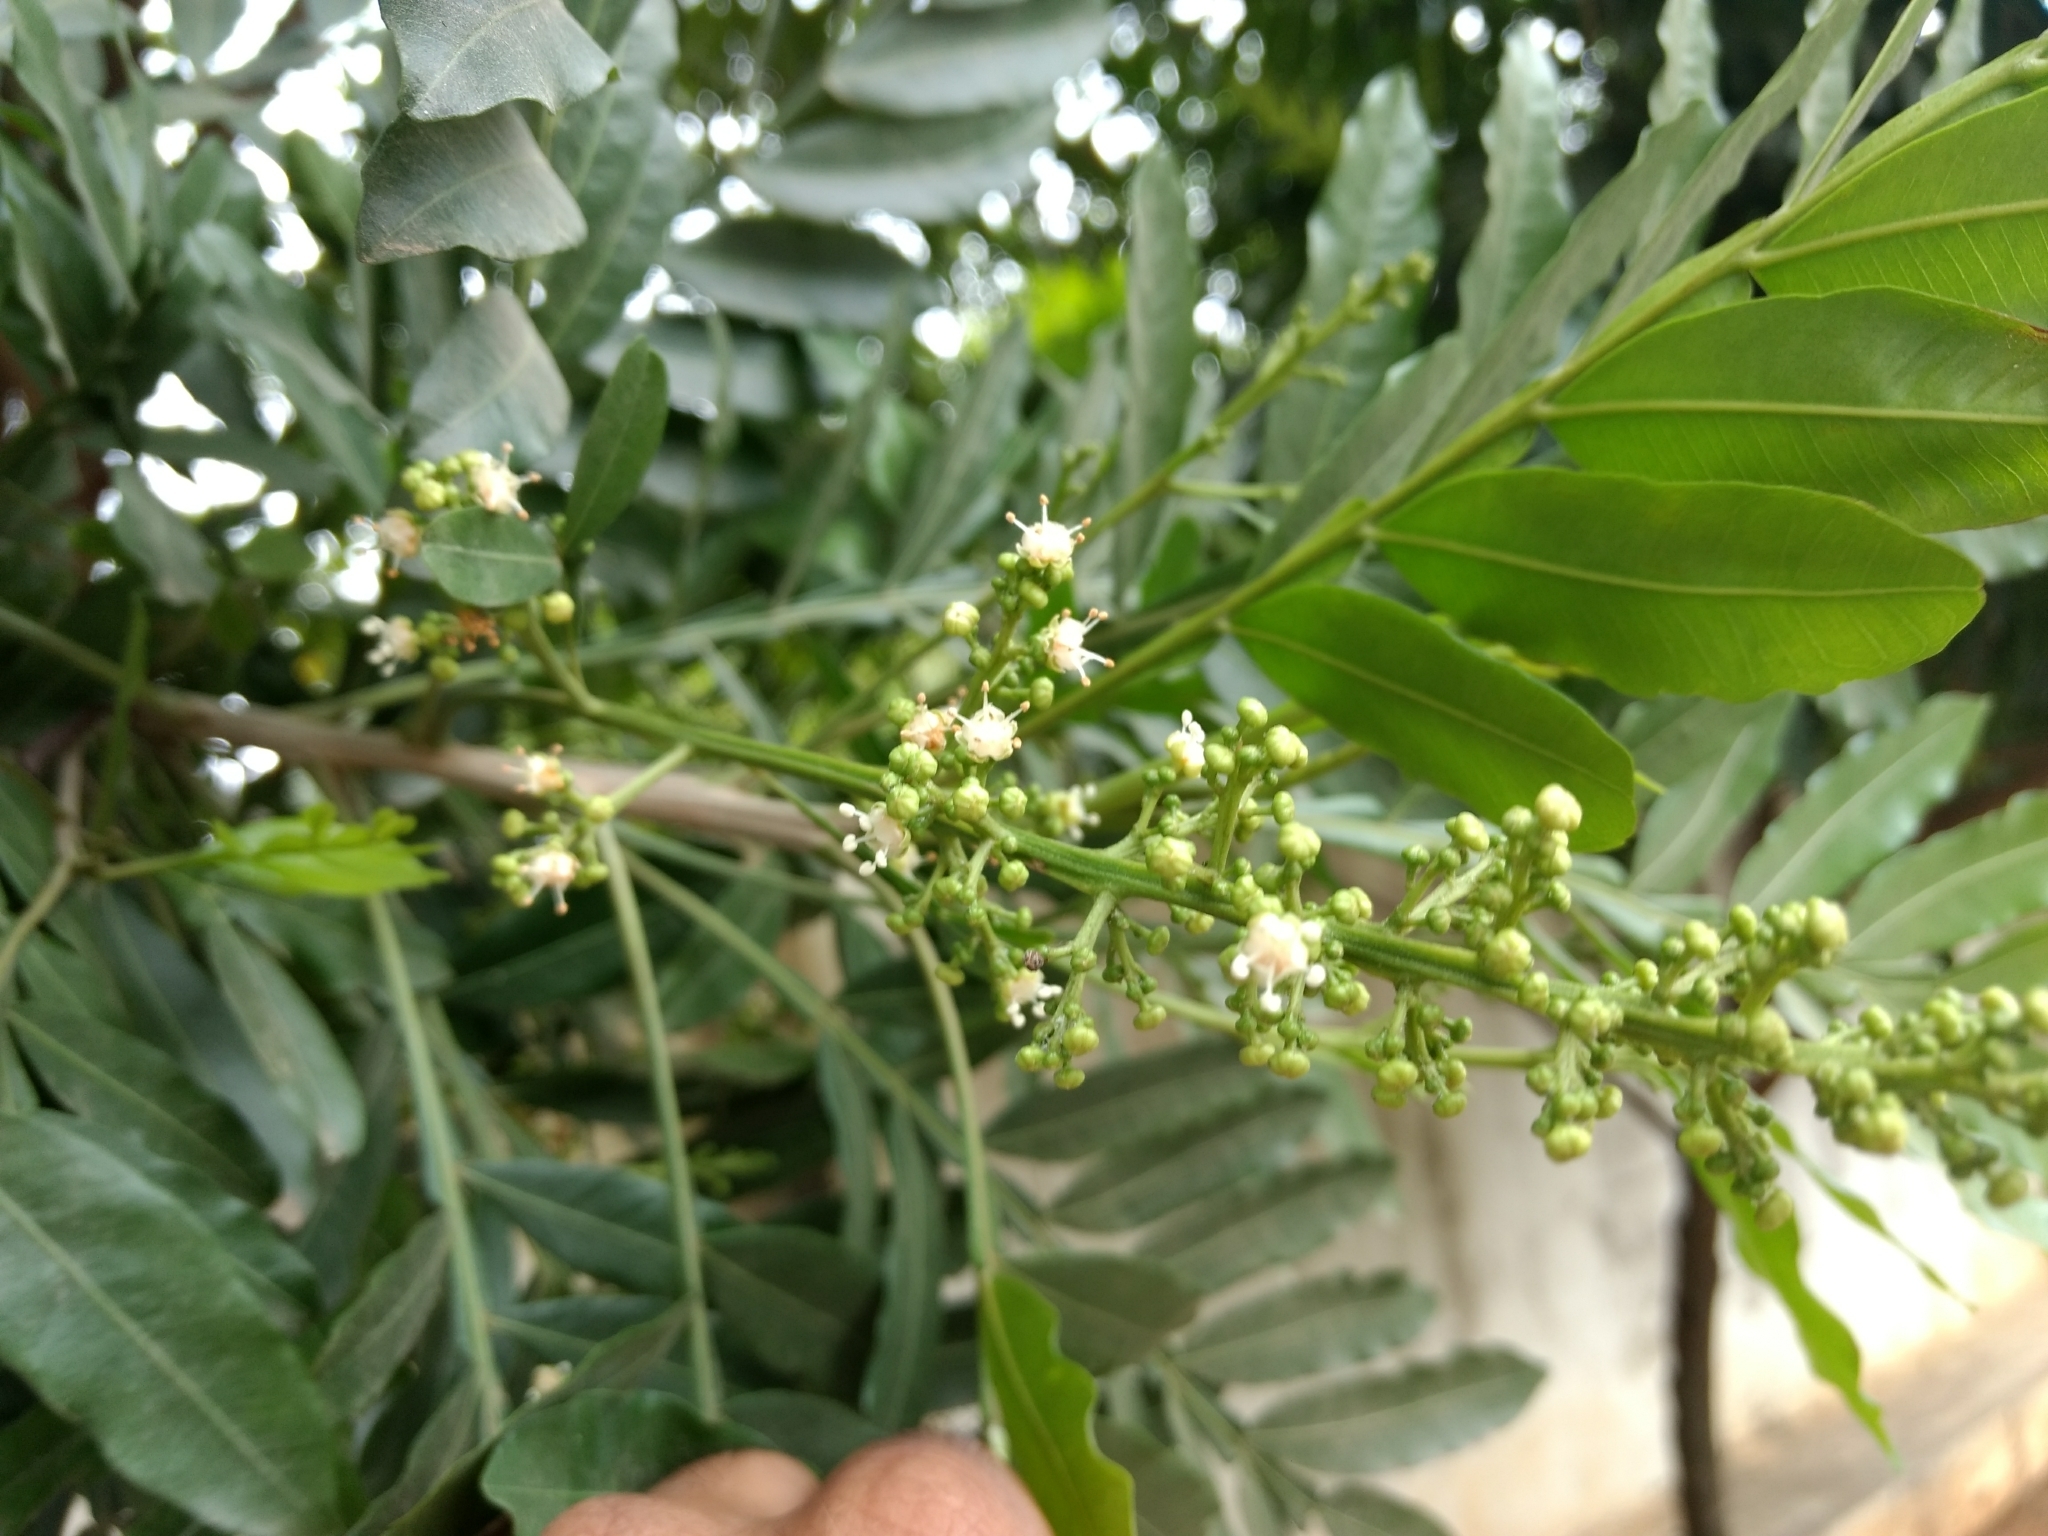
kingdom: Plantae
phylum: Tracheophyta
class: Magnoliopsida
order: Sapindales
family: Sapindaceae
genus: Filicium
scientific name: Filicium decipiens
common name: Ferntree
